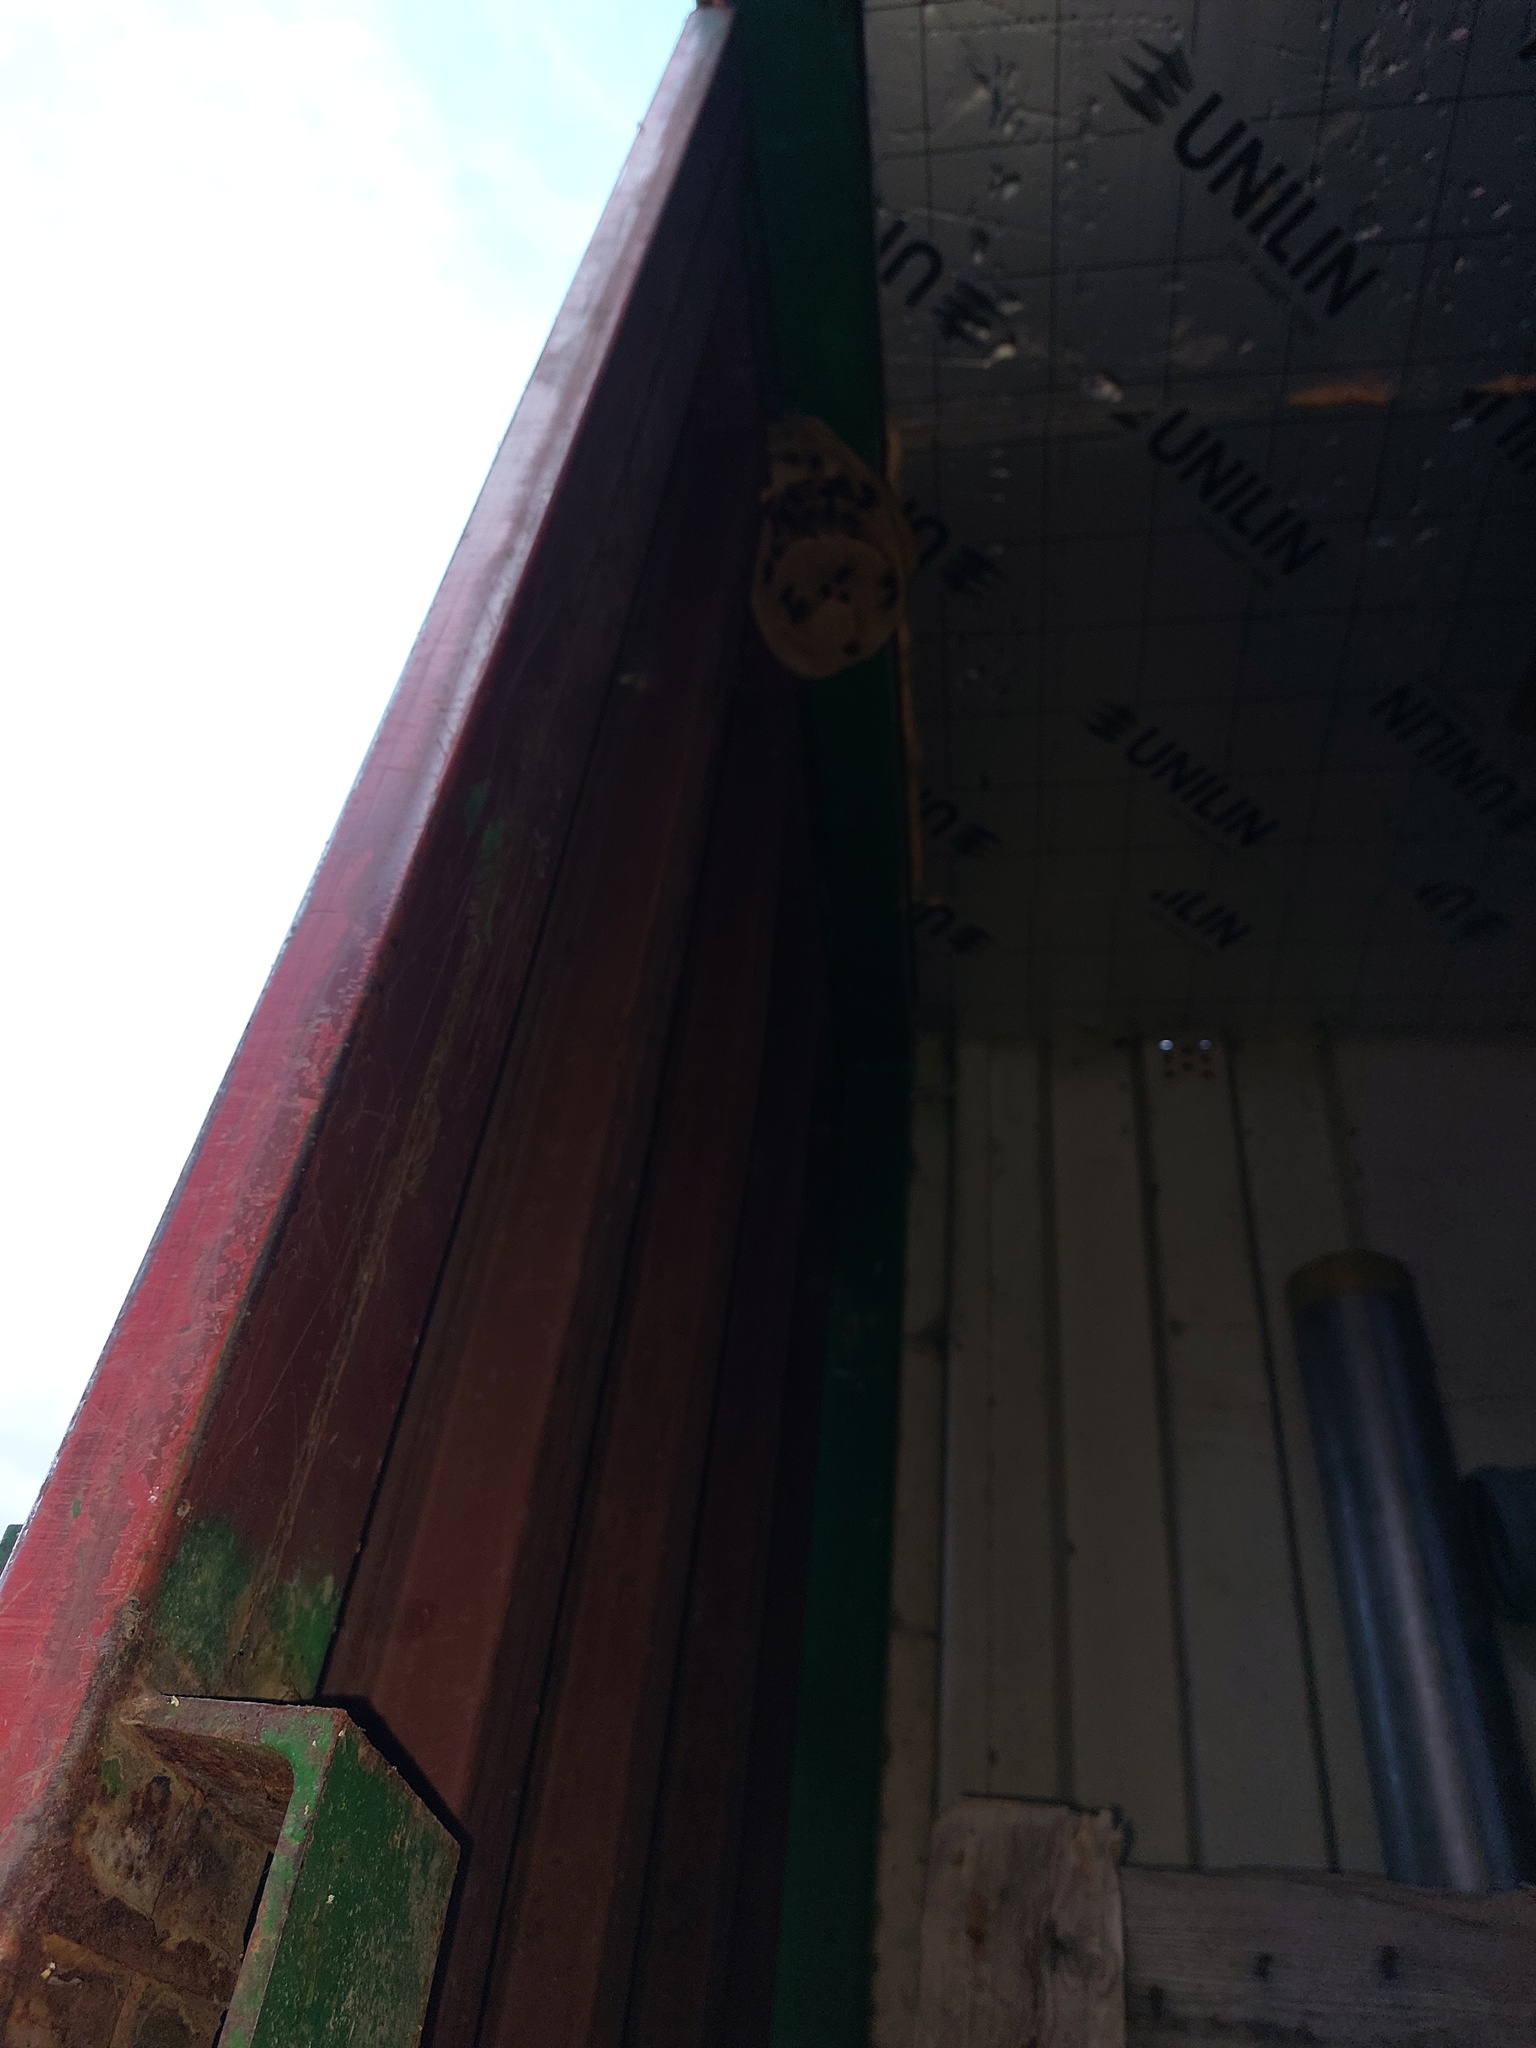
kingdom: Animalia
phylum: Arthropoda
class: Insecta
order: Hymenoptera
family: Vespidae
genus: Vespa
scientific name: Vespa velutina
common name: Asian hornet
